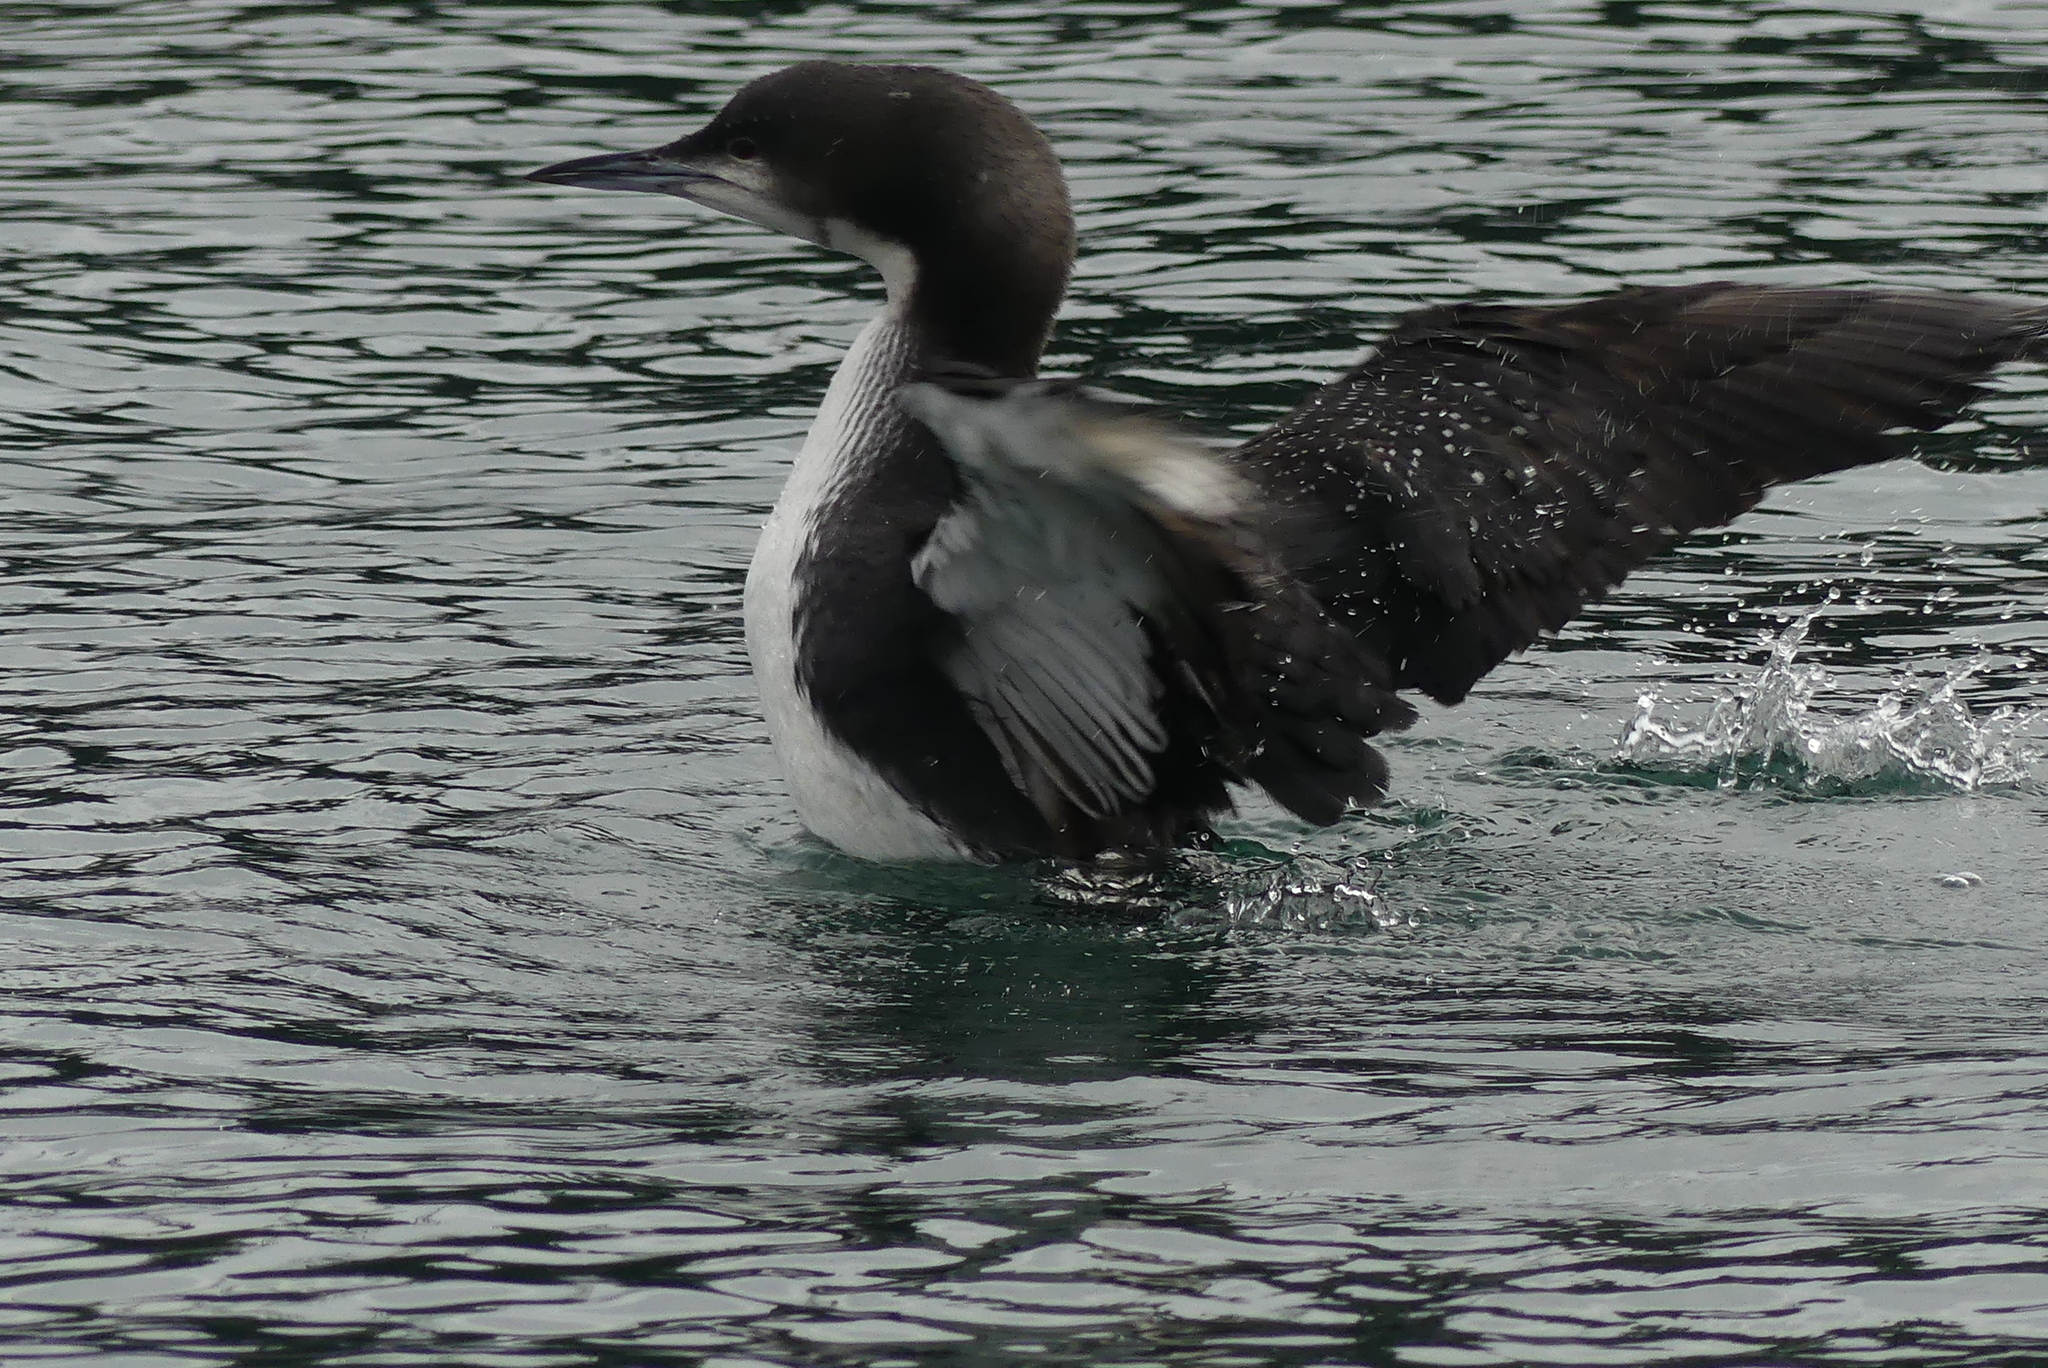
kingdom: Animalia
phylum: Chordata
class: Aves
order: Gaviiformes
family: Gaviidae
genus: Gavia
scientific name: Gavia pacifica
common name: Pacific loon
